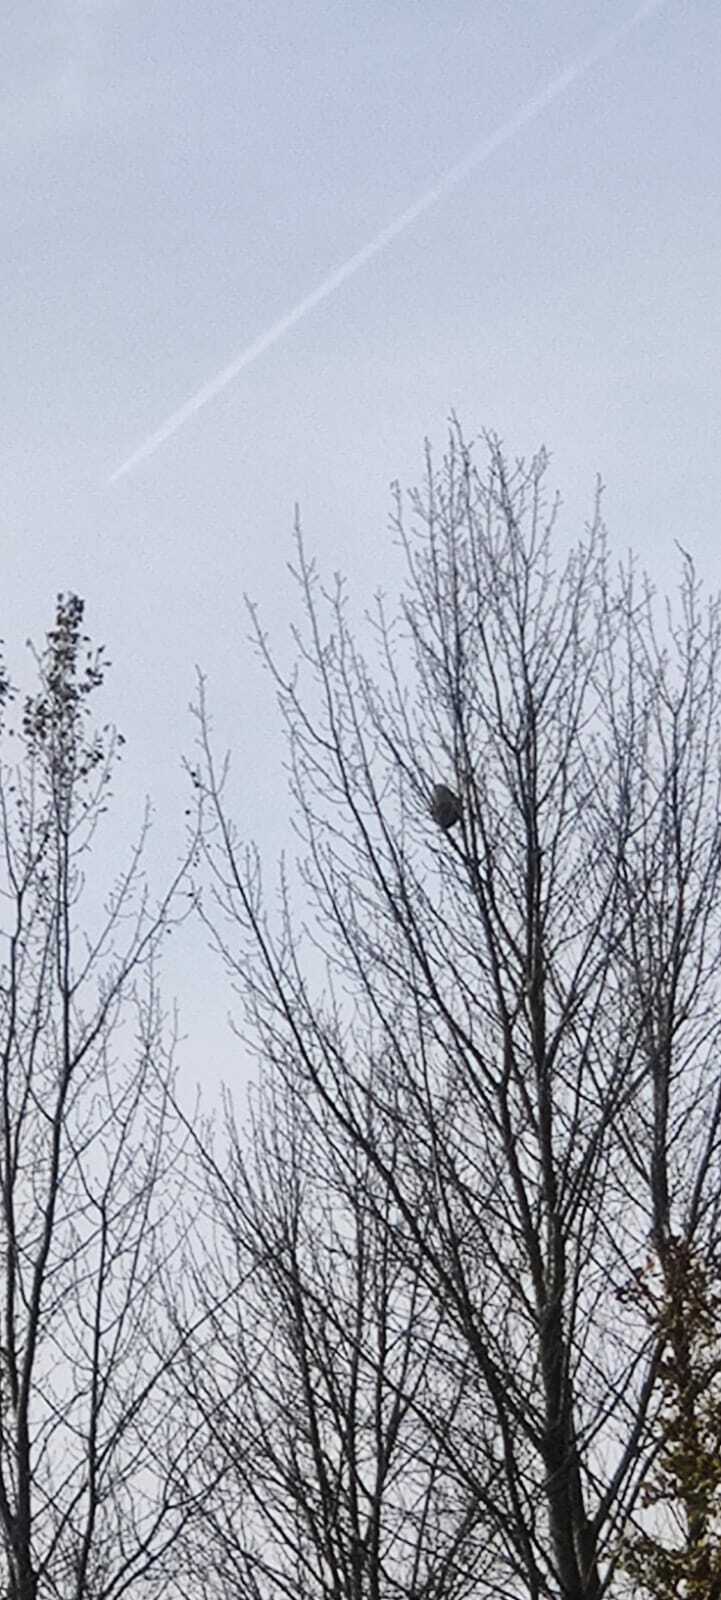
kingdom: Animalia
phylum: Arthropoda
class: Insecta
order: Hymenoptera
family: Vespidae
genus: Vespa
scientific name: Vespa velutina
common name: Asian hornet
